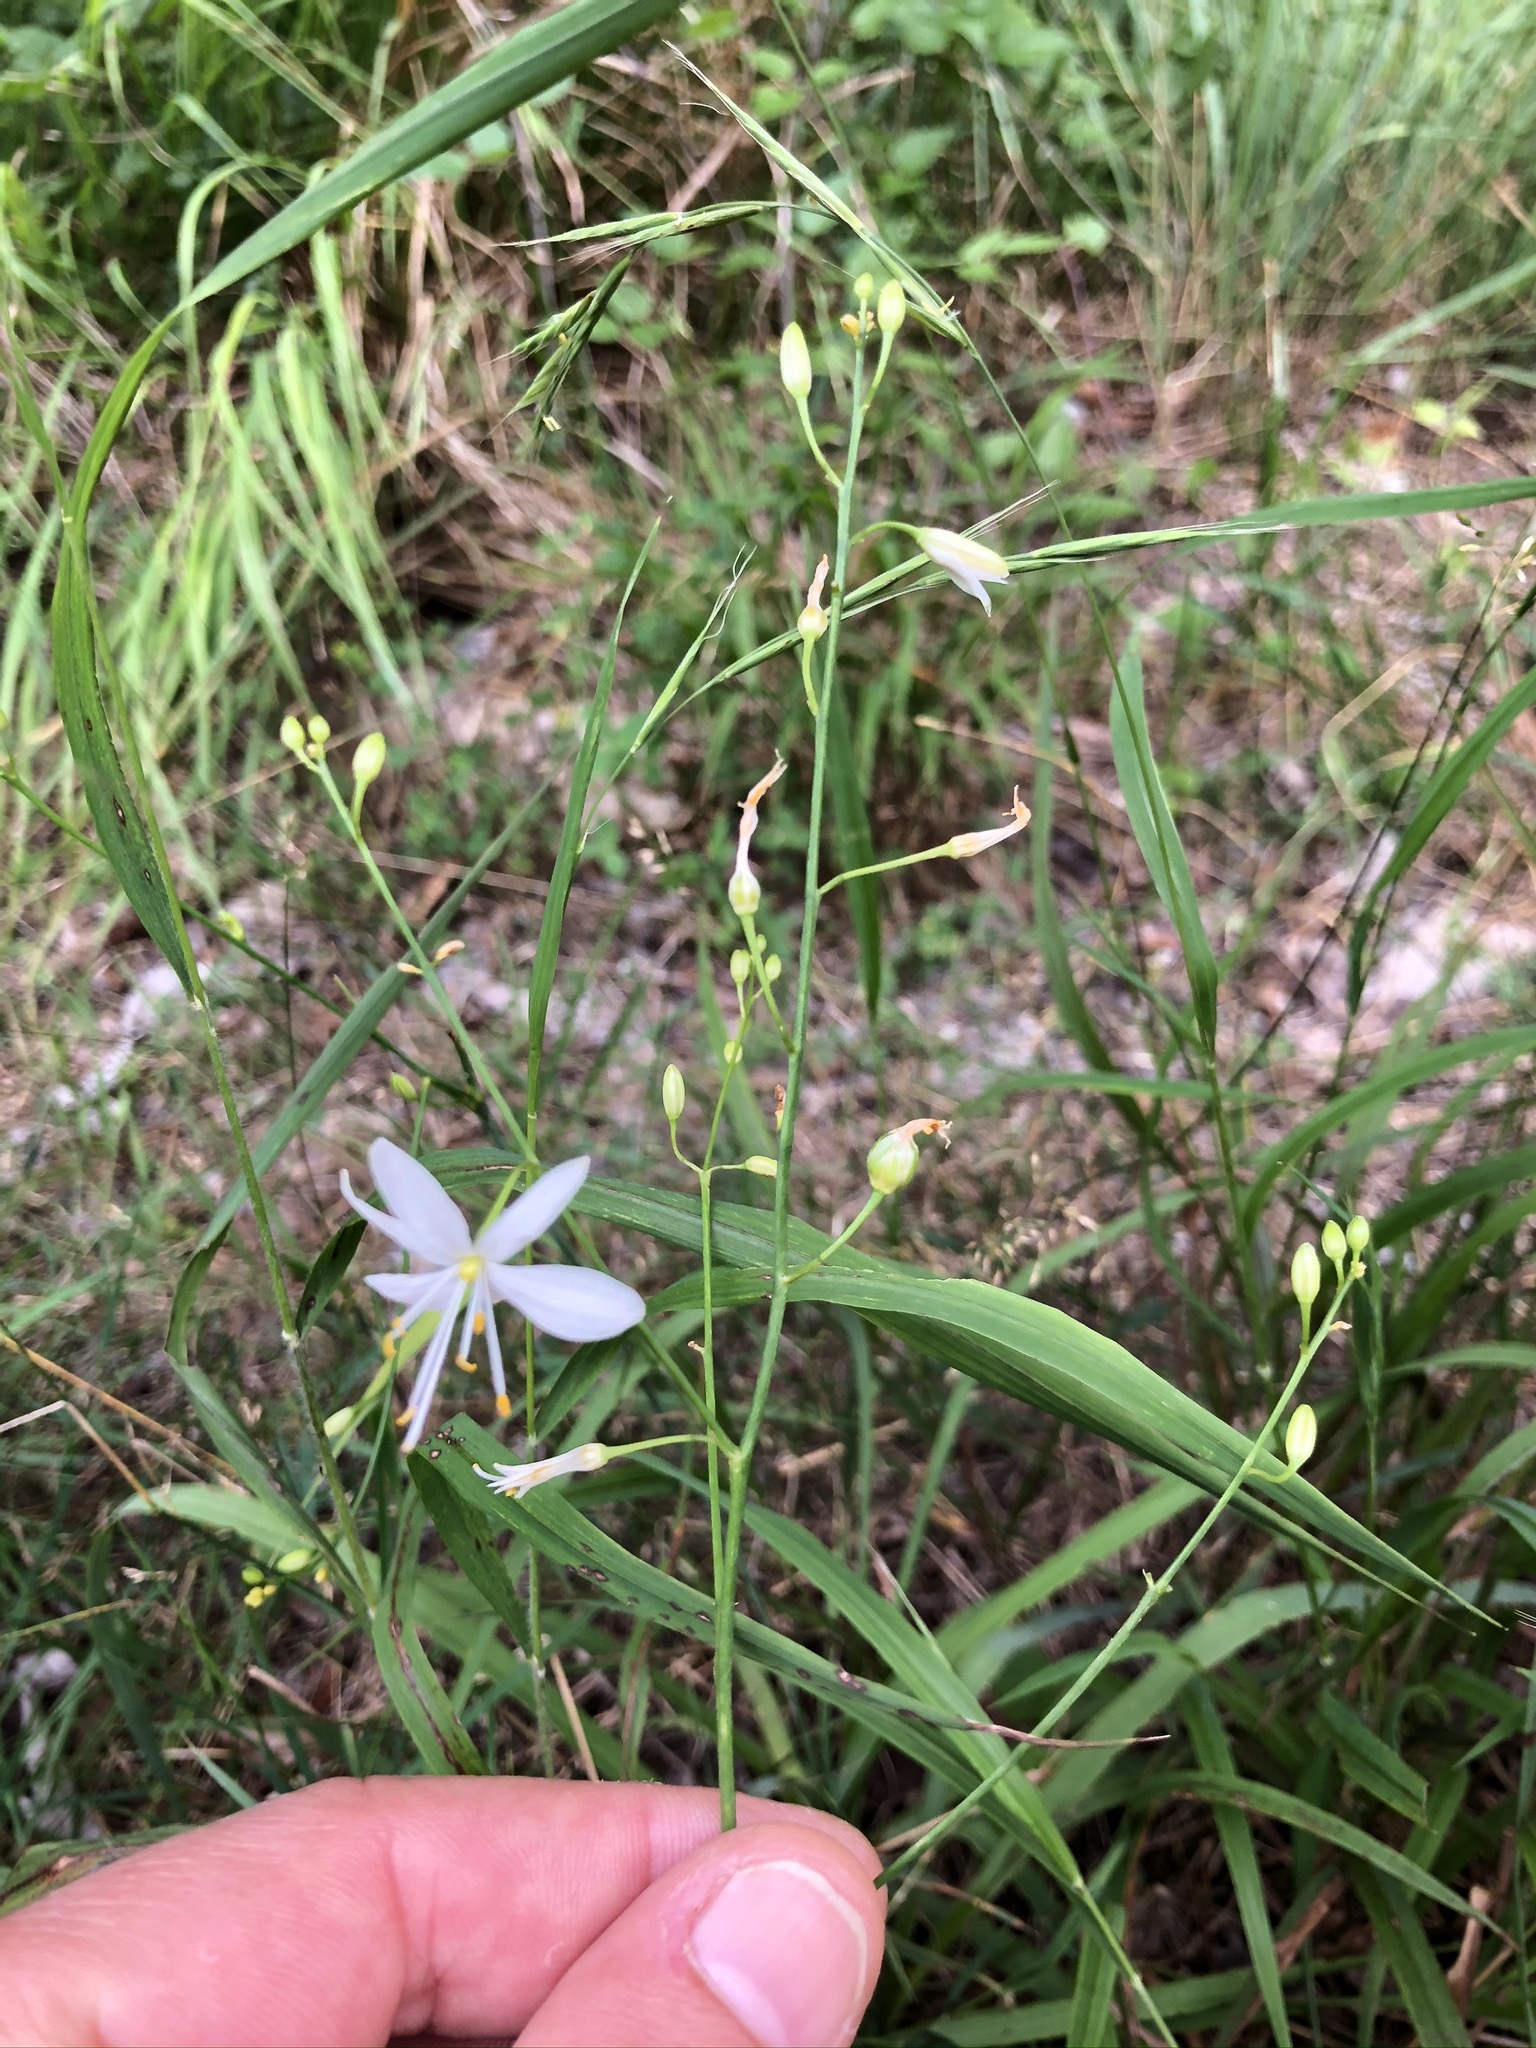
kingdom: Plantae
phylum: Tracheophyta
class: Liliopsida
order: Asparagales
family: Asparagaceae
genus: Anthericum
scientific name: Anthericum ramosum
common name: Branched st. bernard's-lily
